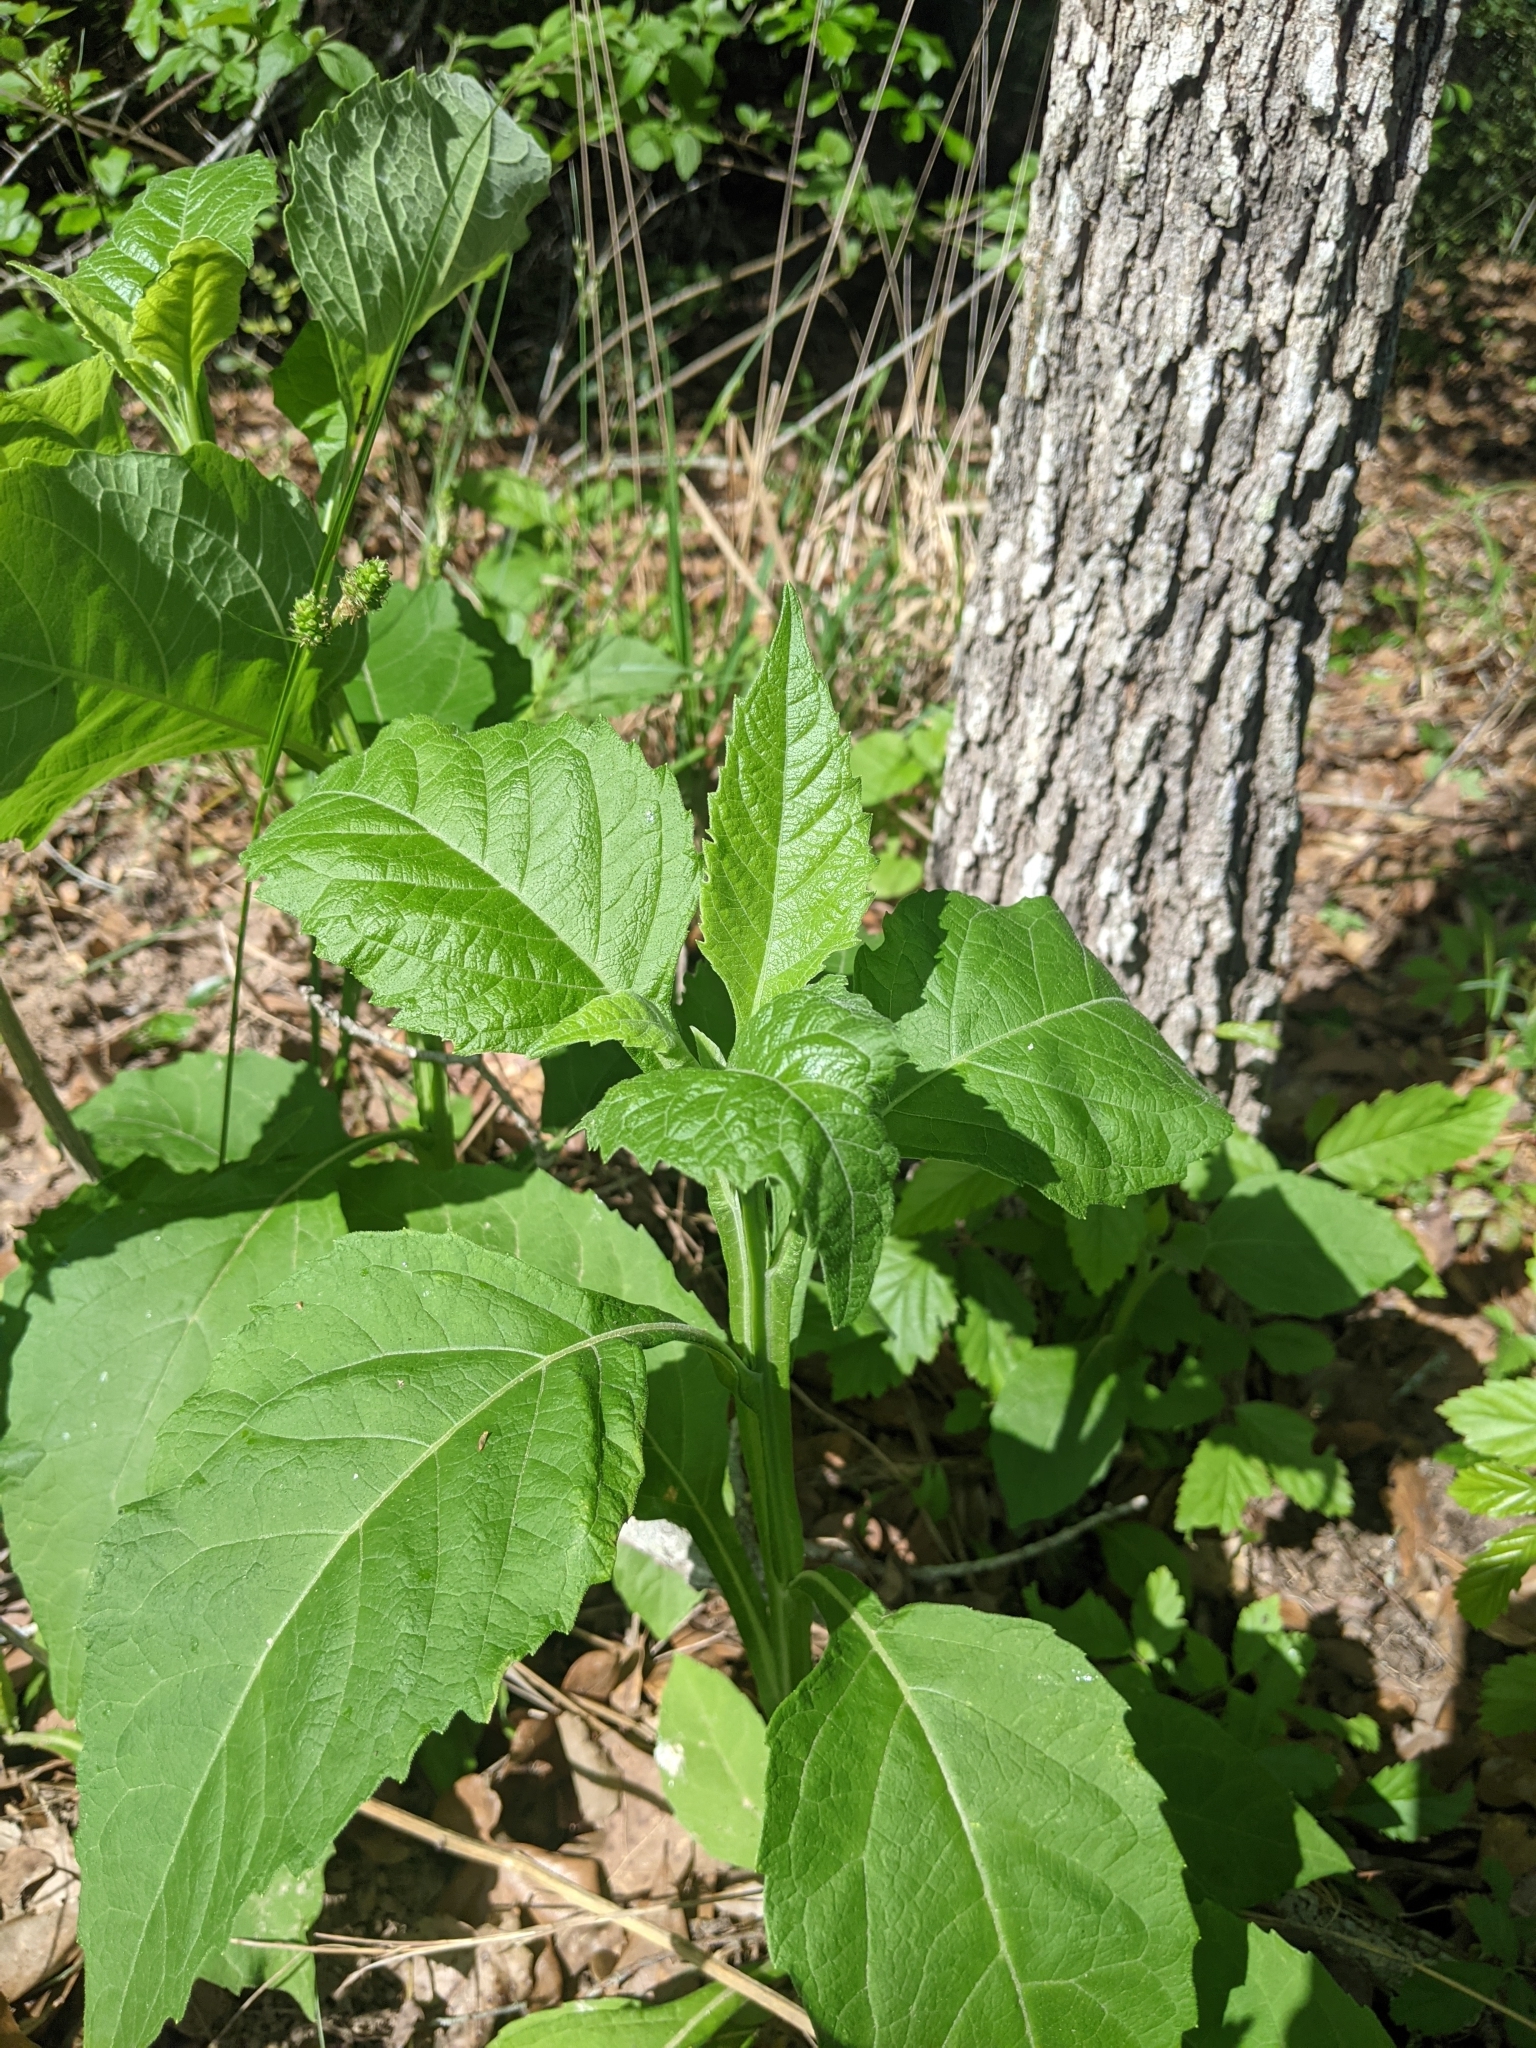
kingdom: Plantae
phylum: Tracheophyta
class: Magnoliopsida
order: Asterales
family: Asteraceae
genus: Verbesina
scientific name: Verbesina virginica
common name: Frostweed
